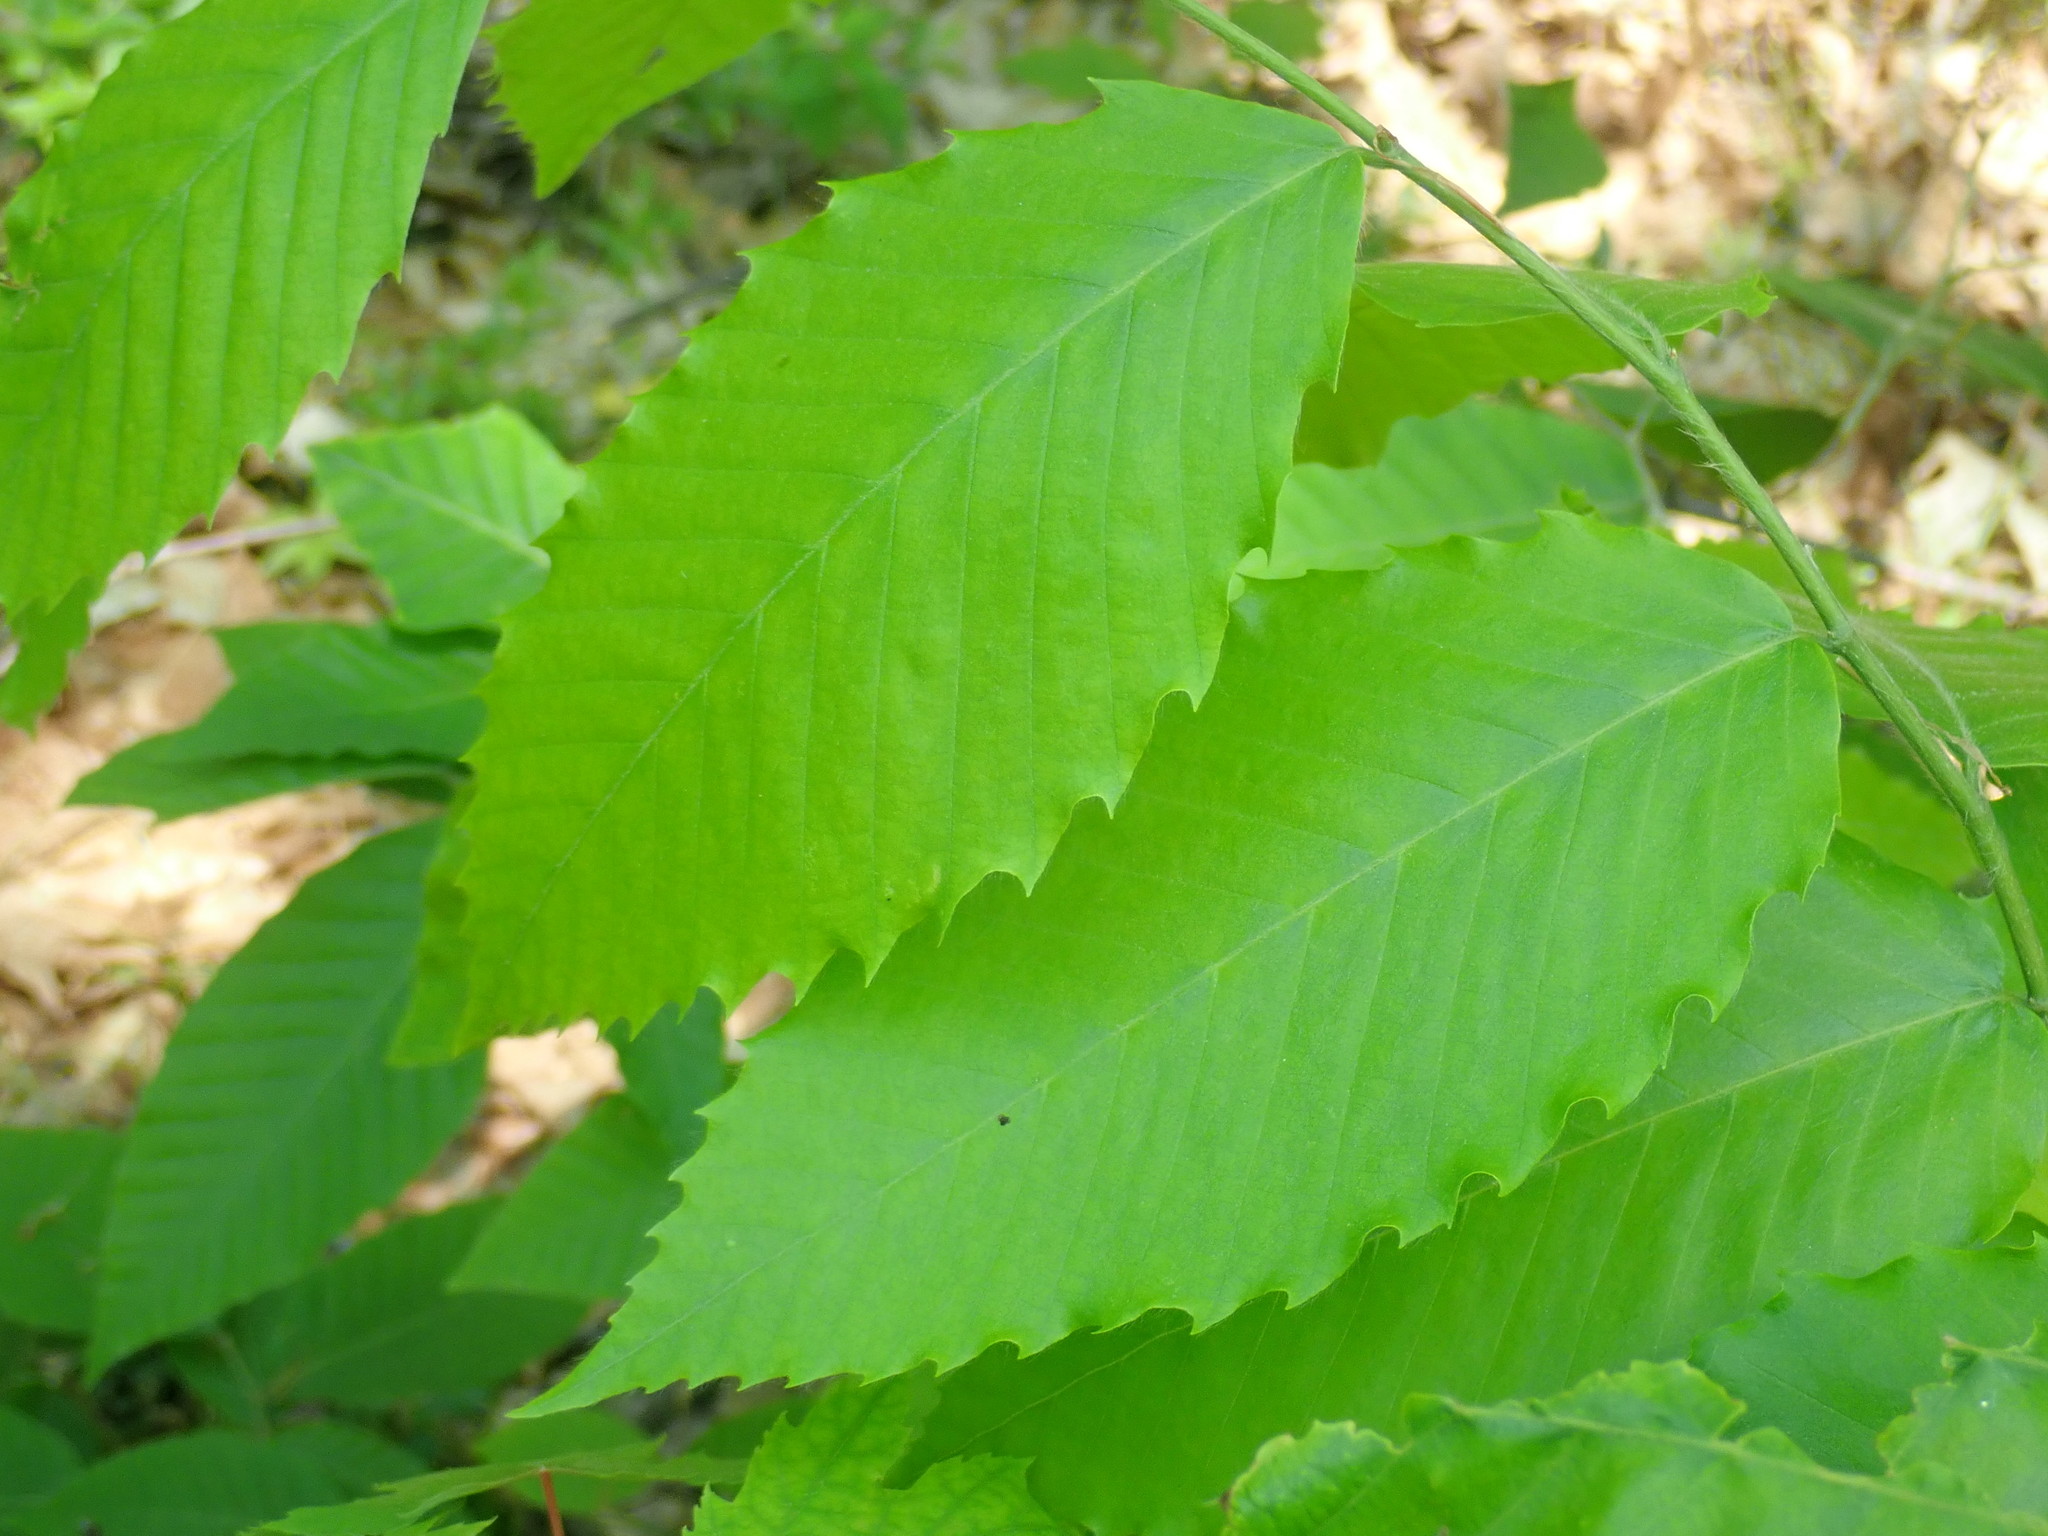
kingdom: Plantae
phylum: Tracheophyta
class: Magnoliopsida
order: Fagales
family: Fagaceae
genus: Castanea
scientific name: Castanea dentata
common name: American chestnut
